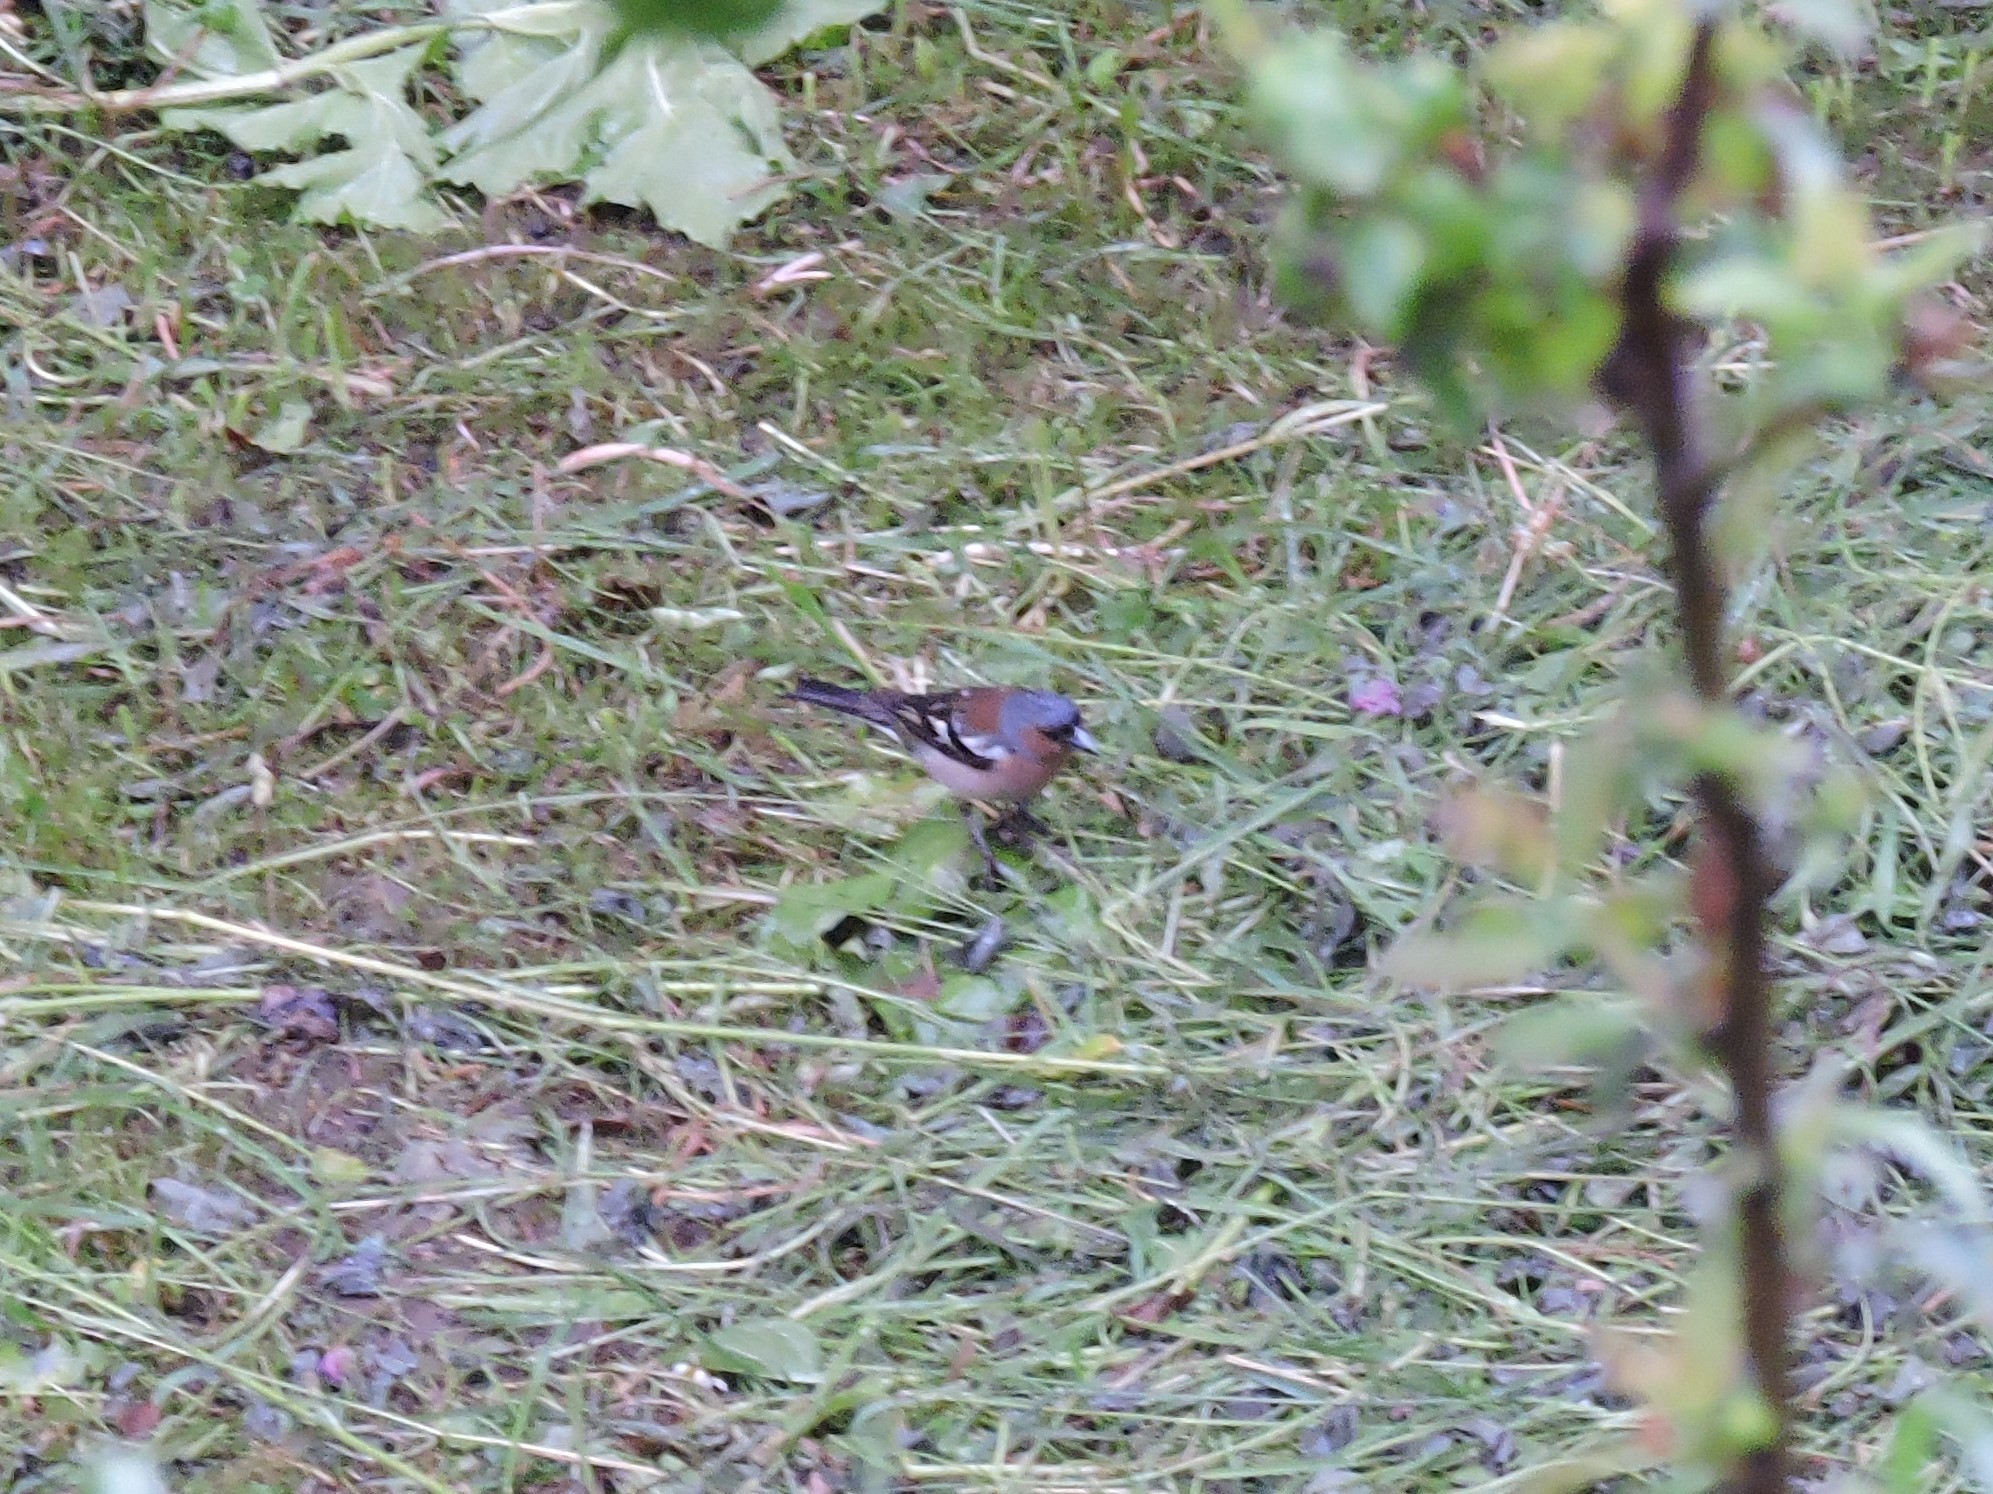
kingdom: Animalia
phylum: Chordata
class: Aves
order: Passeriformes
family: Fringillidae
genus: Fringilla
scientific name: Fringilla coelebs
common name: Common chaffinch
